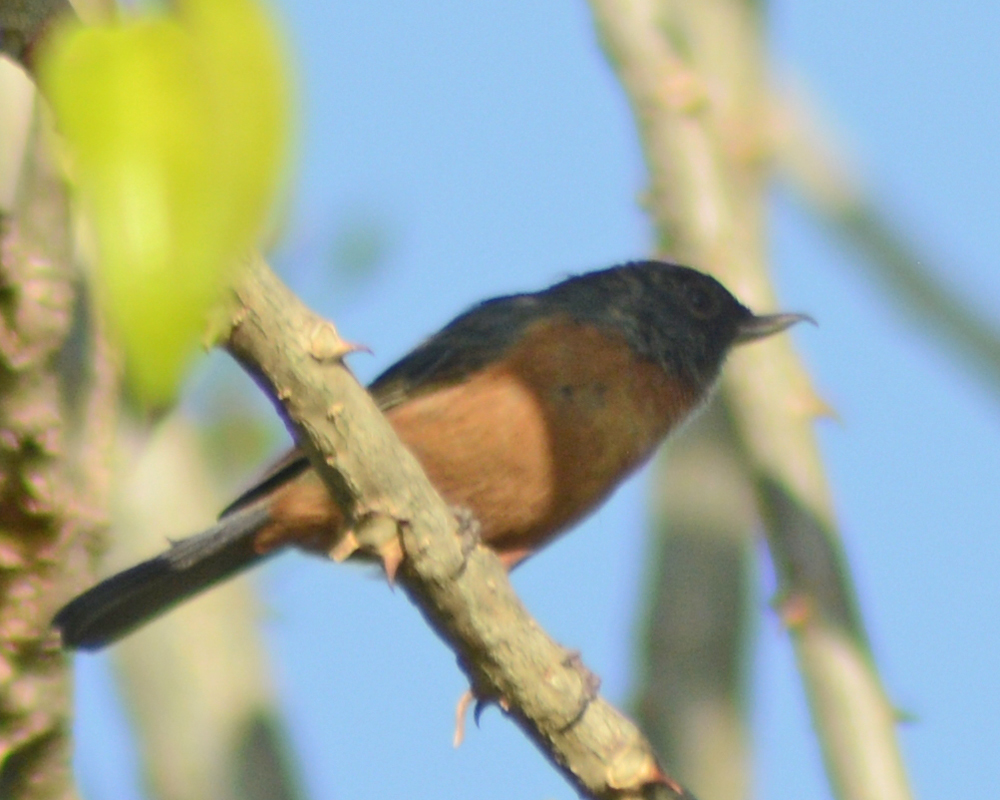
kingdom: Animalia
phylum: Chordata
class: Aves
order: Passeriformes
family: Thraupidae
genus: Diglossa
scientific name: Diglossa baritula
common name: Cinnamon-bellied flowerpiercer
